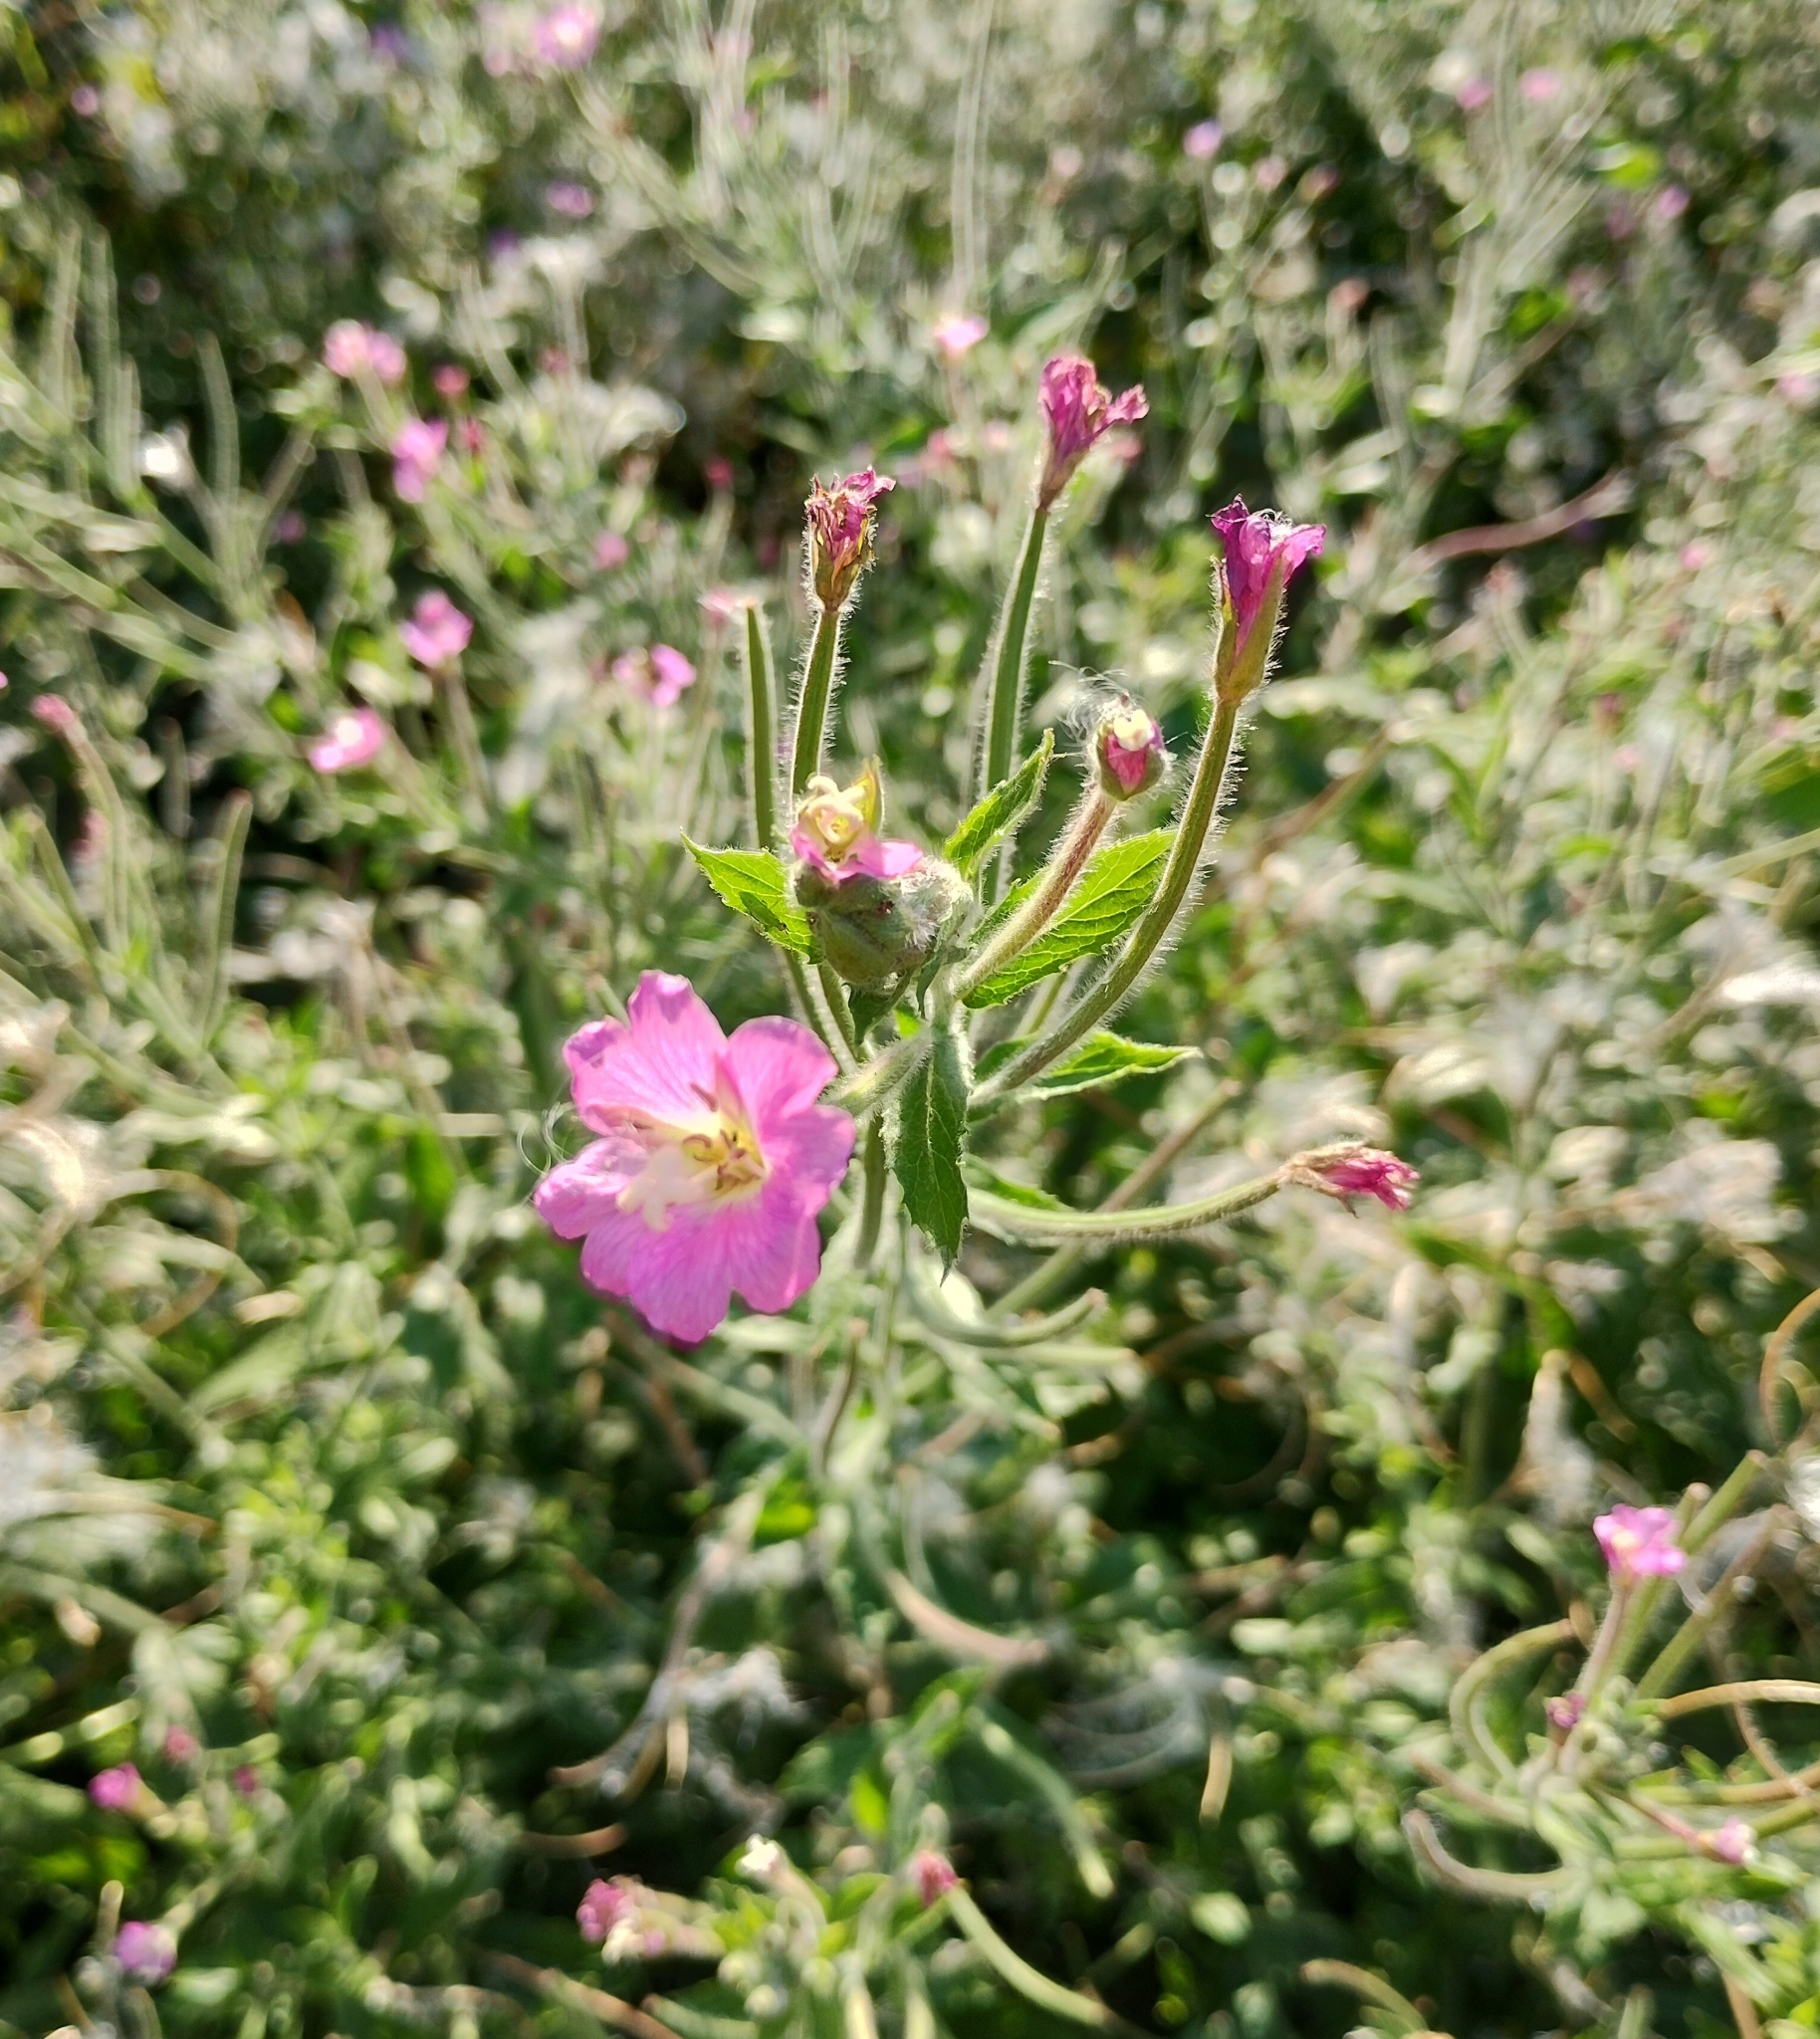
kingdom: Plantae
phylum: Tracheophyta
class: Magnoliopsida
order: Myrtales
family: Onagraceae
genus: Epilobium
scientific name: Epilobium hirsutum
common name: Great willowherb
